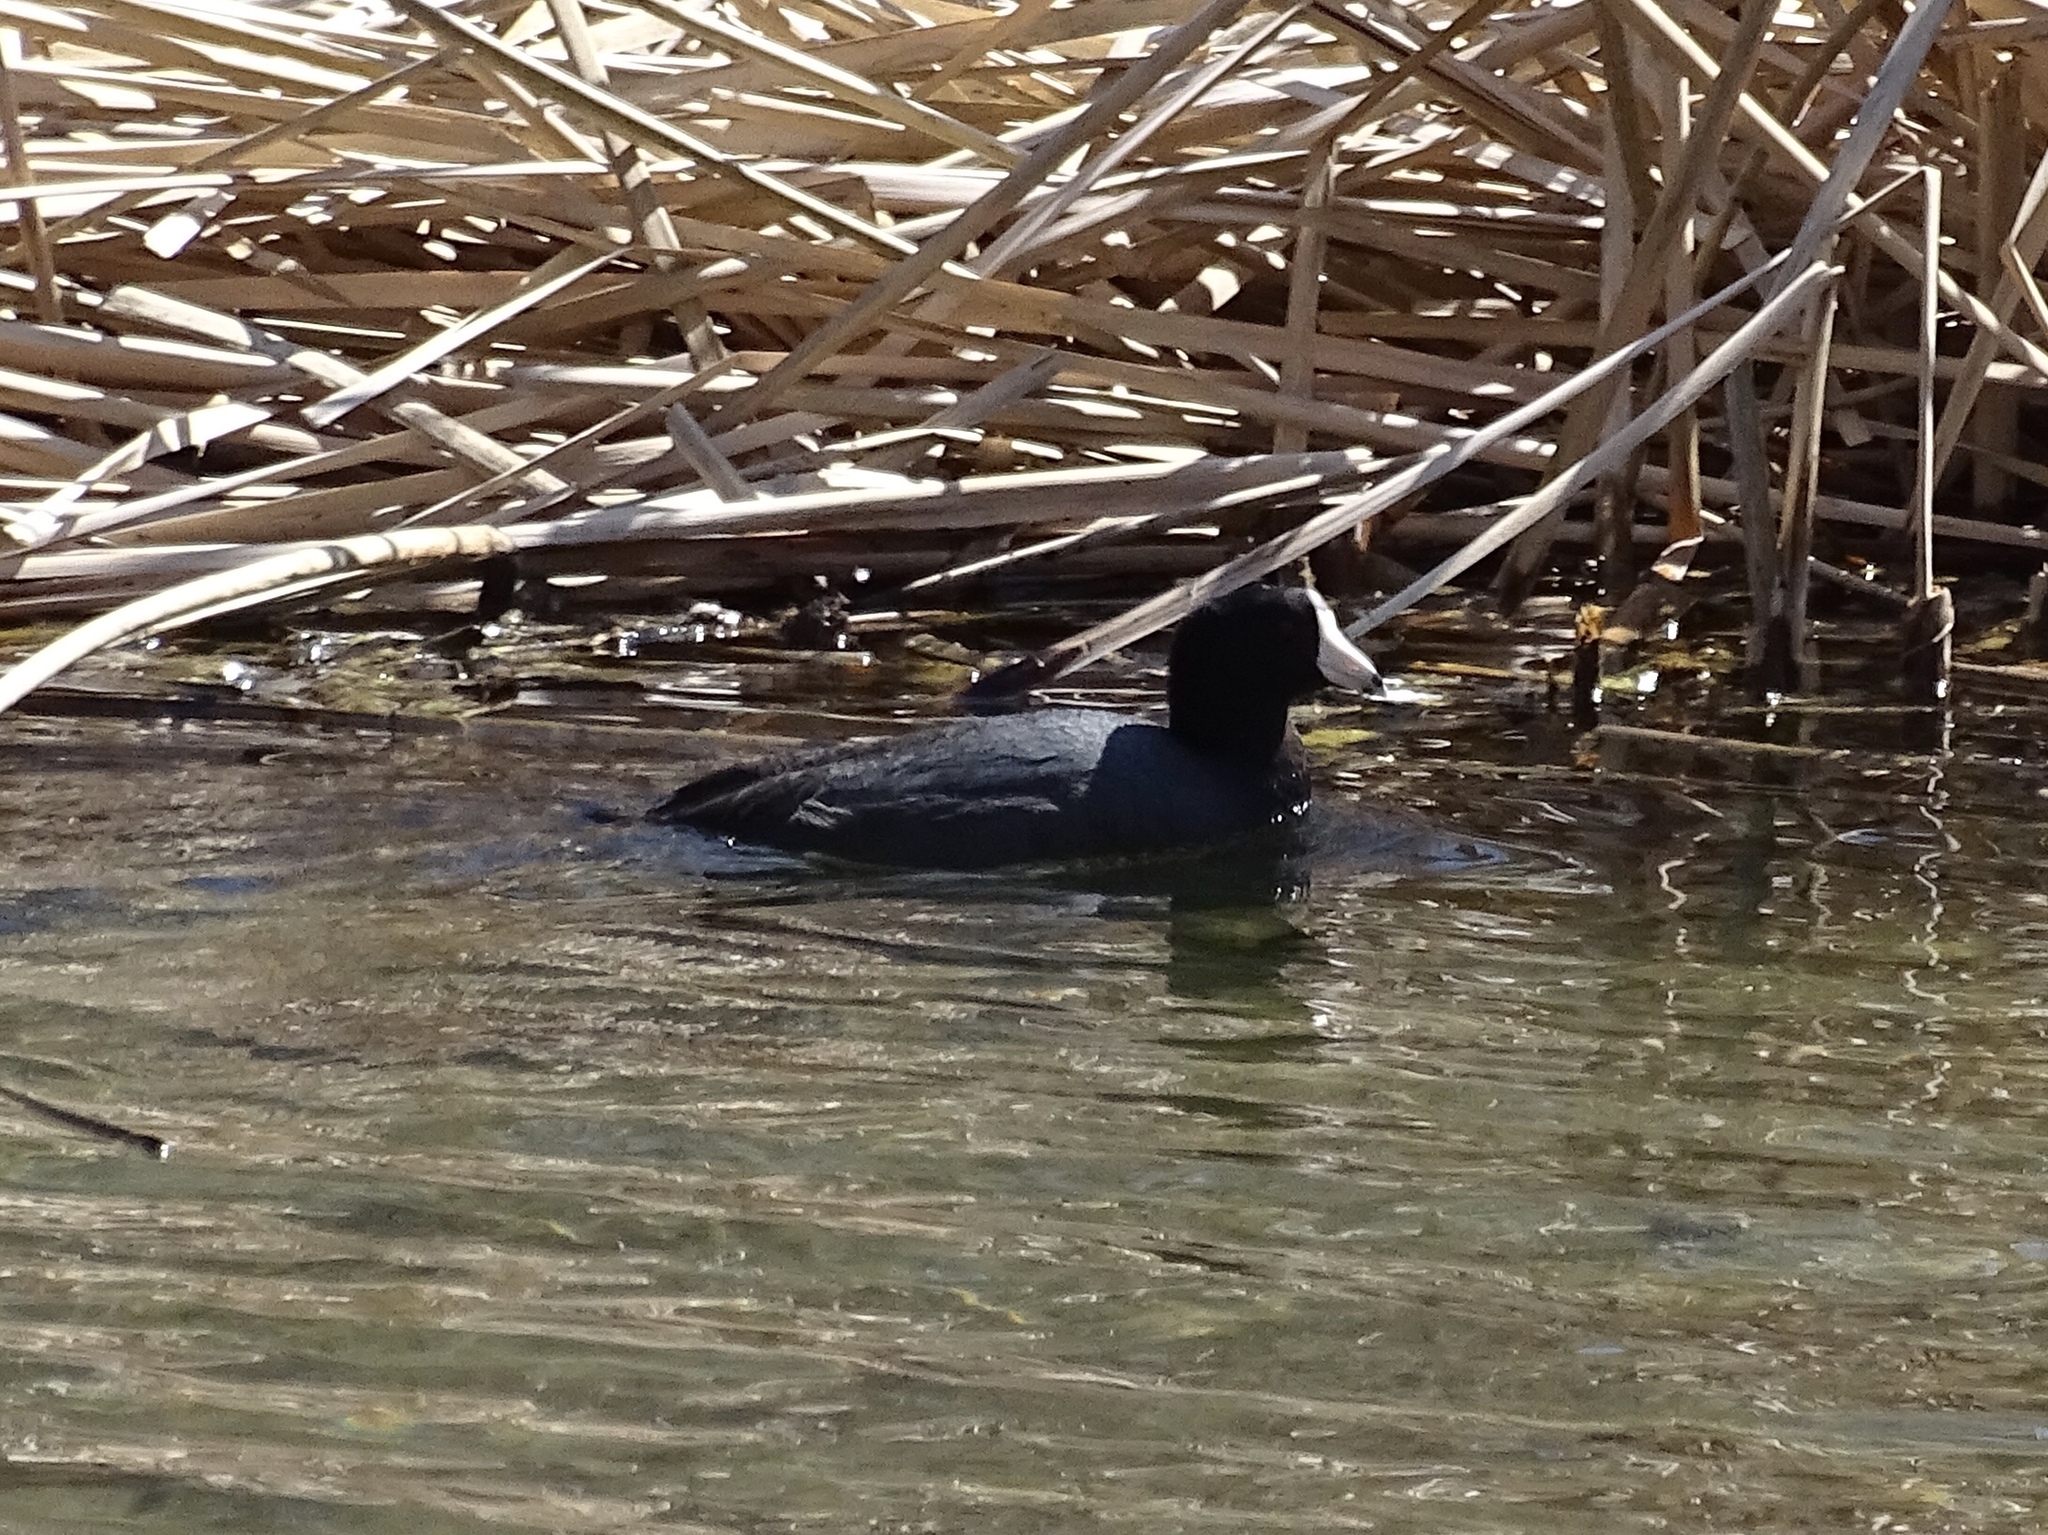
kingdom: Animalia
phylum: Chordata
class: Aves
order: Gruiformes
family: Rallidae
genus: Fulica
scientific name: Fulica americana
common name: American coot
